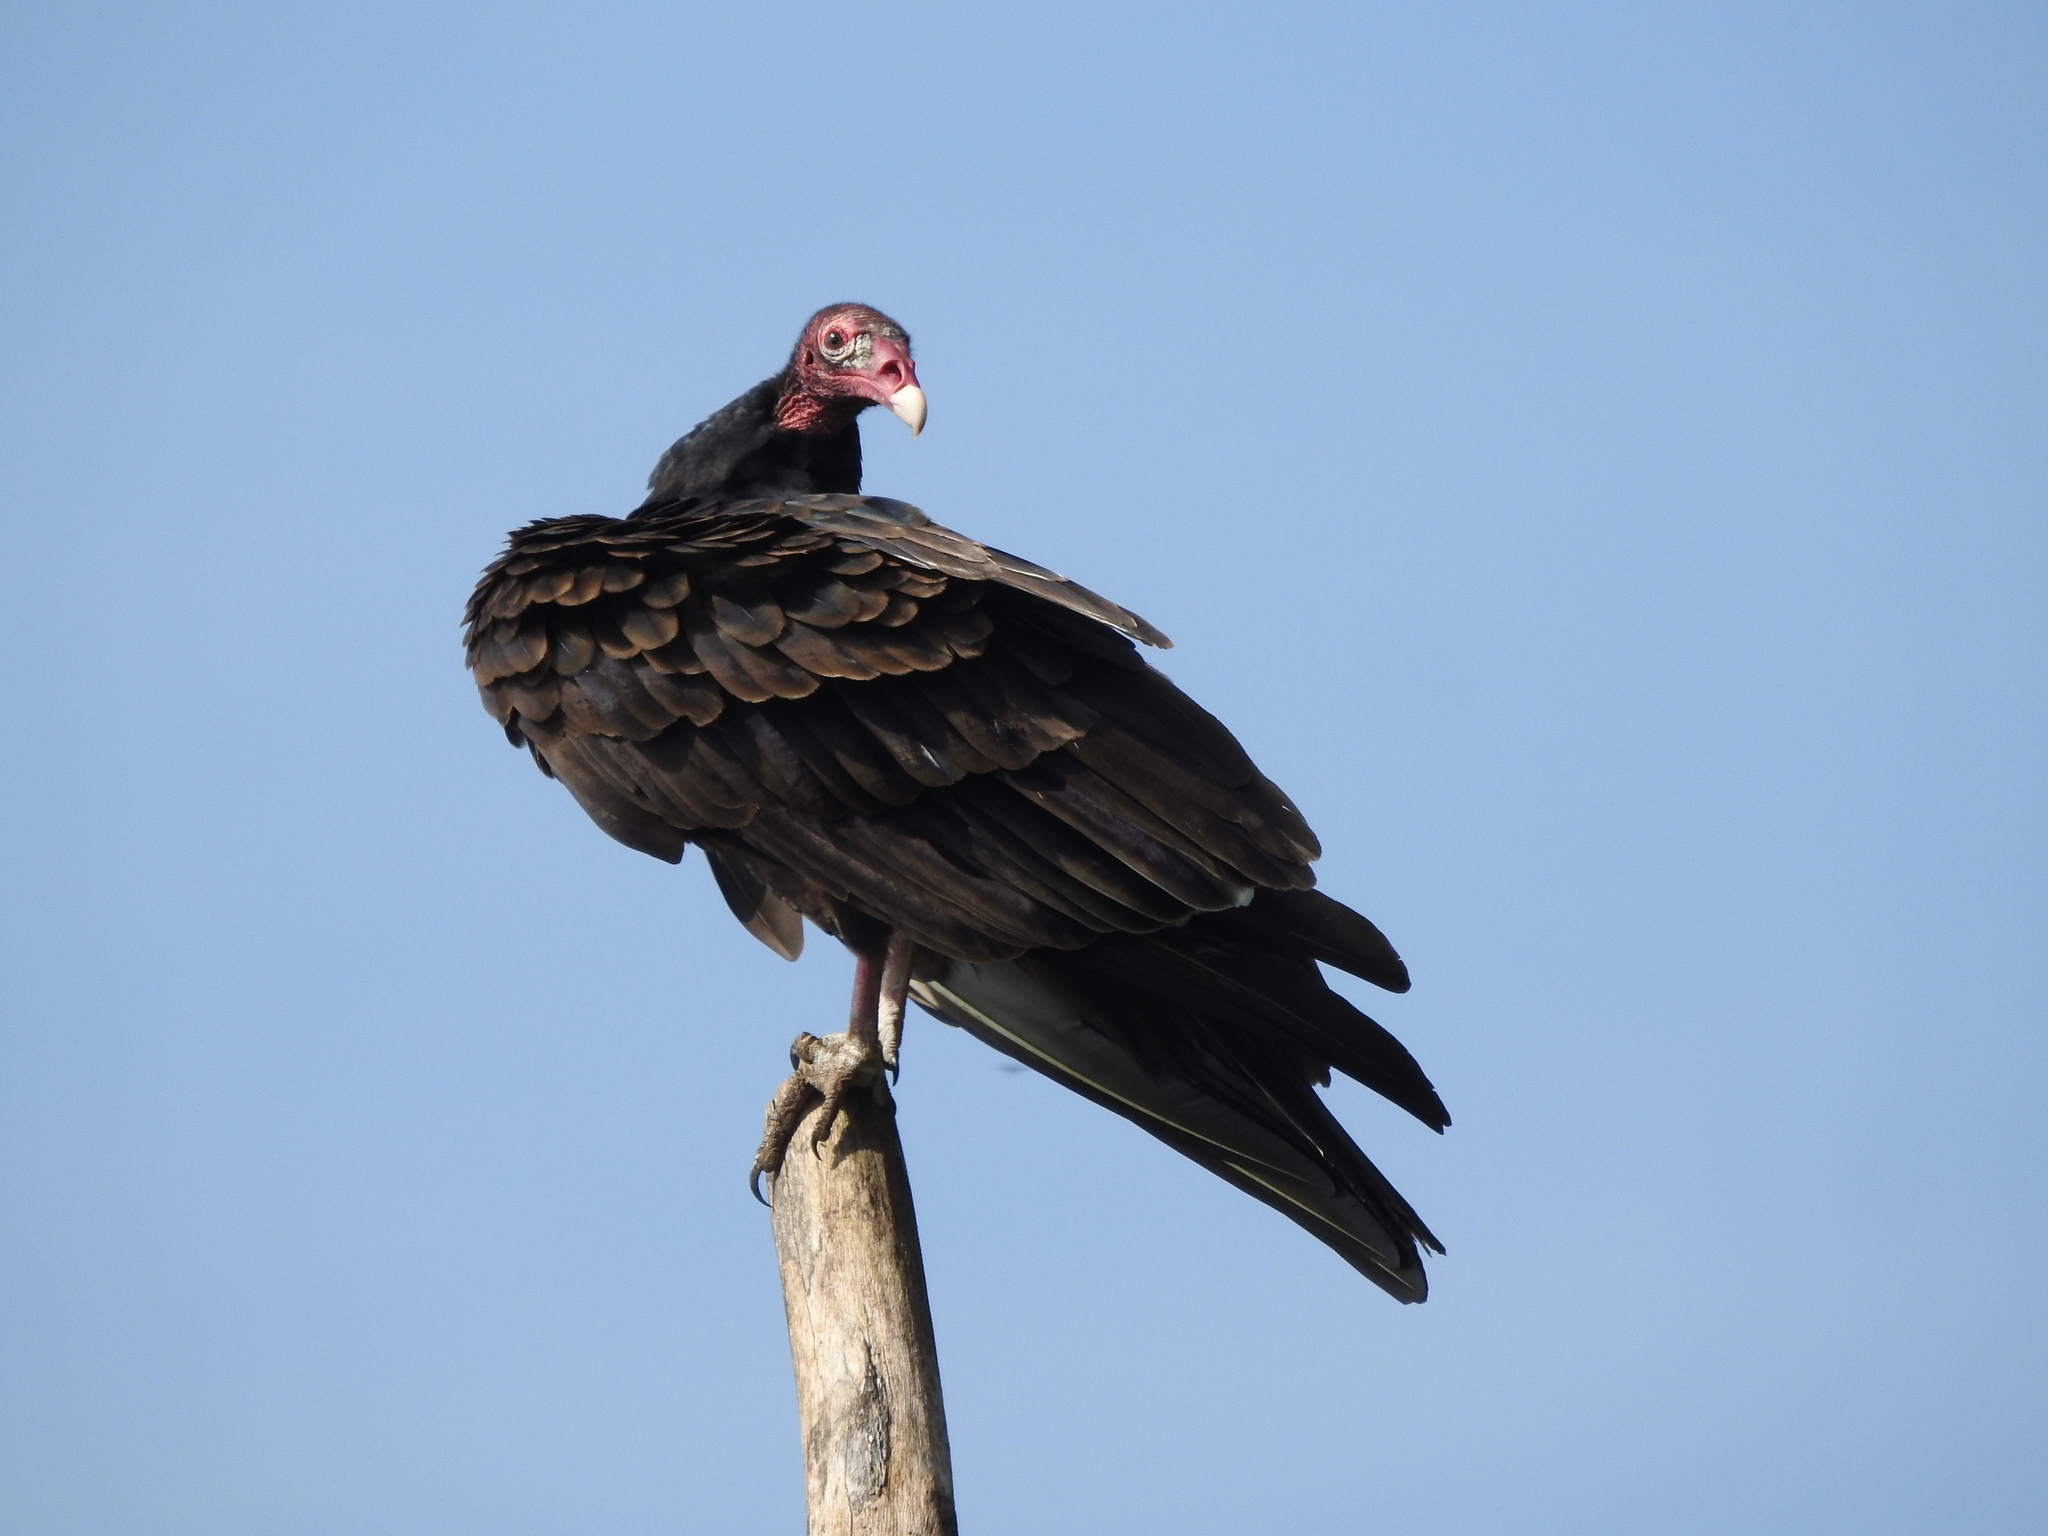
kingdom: Animalia
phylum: Chordata
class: Aves
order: Accipitriformes
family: Cathartidae
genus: Cathartes
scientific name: Cathartes aura
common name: Turkey vulture
